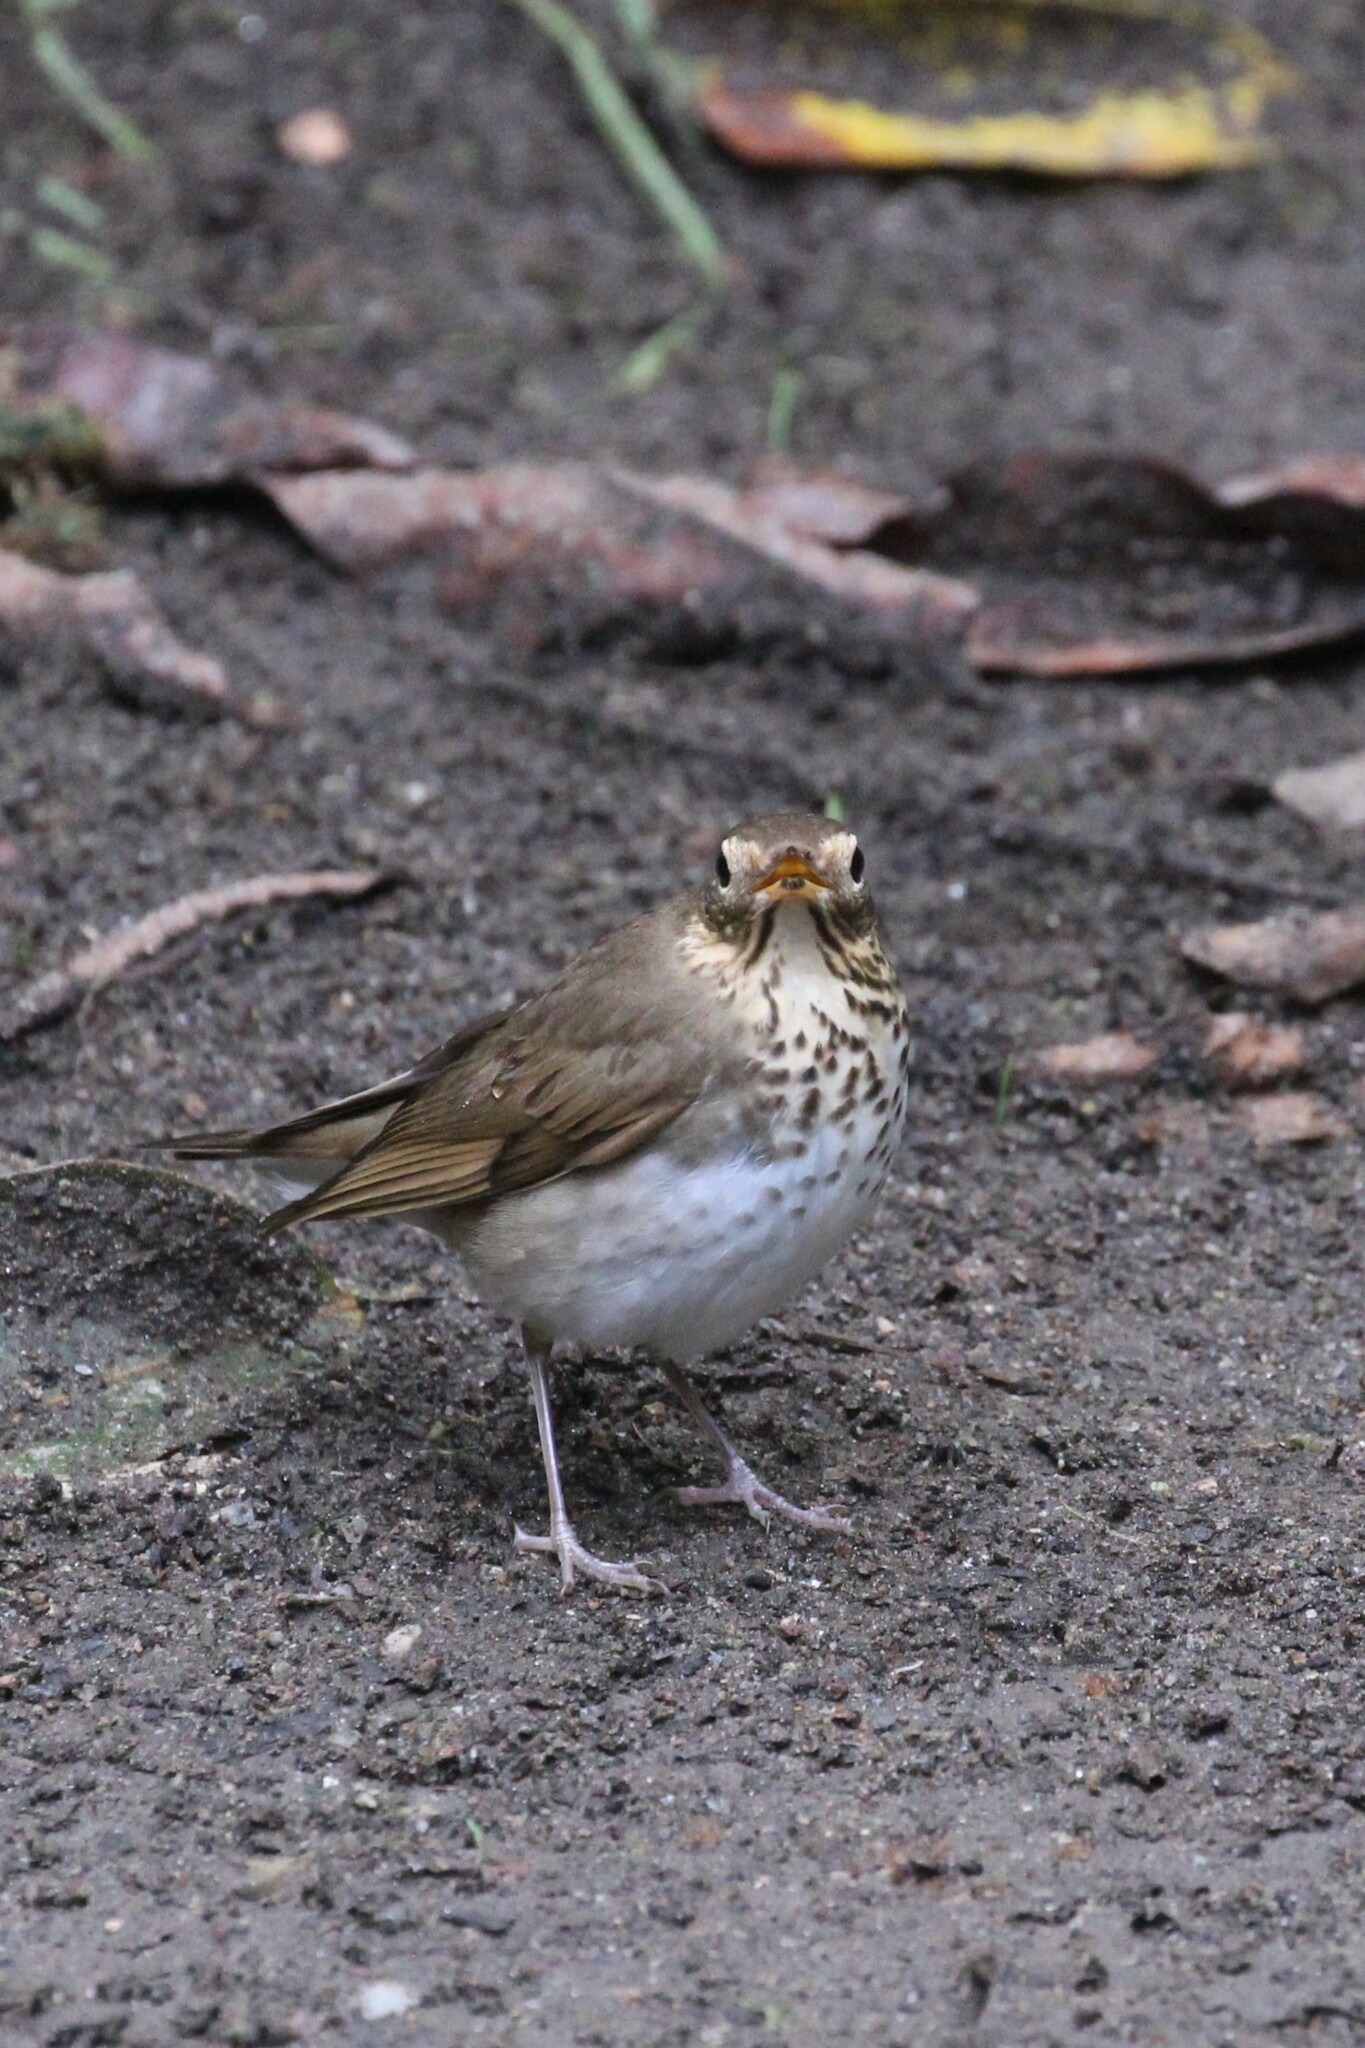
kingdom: Animalia
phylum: Chordata
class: Aves
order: Passeriformes
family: Turdidae
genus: Catharus
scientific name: Catharus ustulatus
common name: Swainson's thrush
